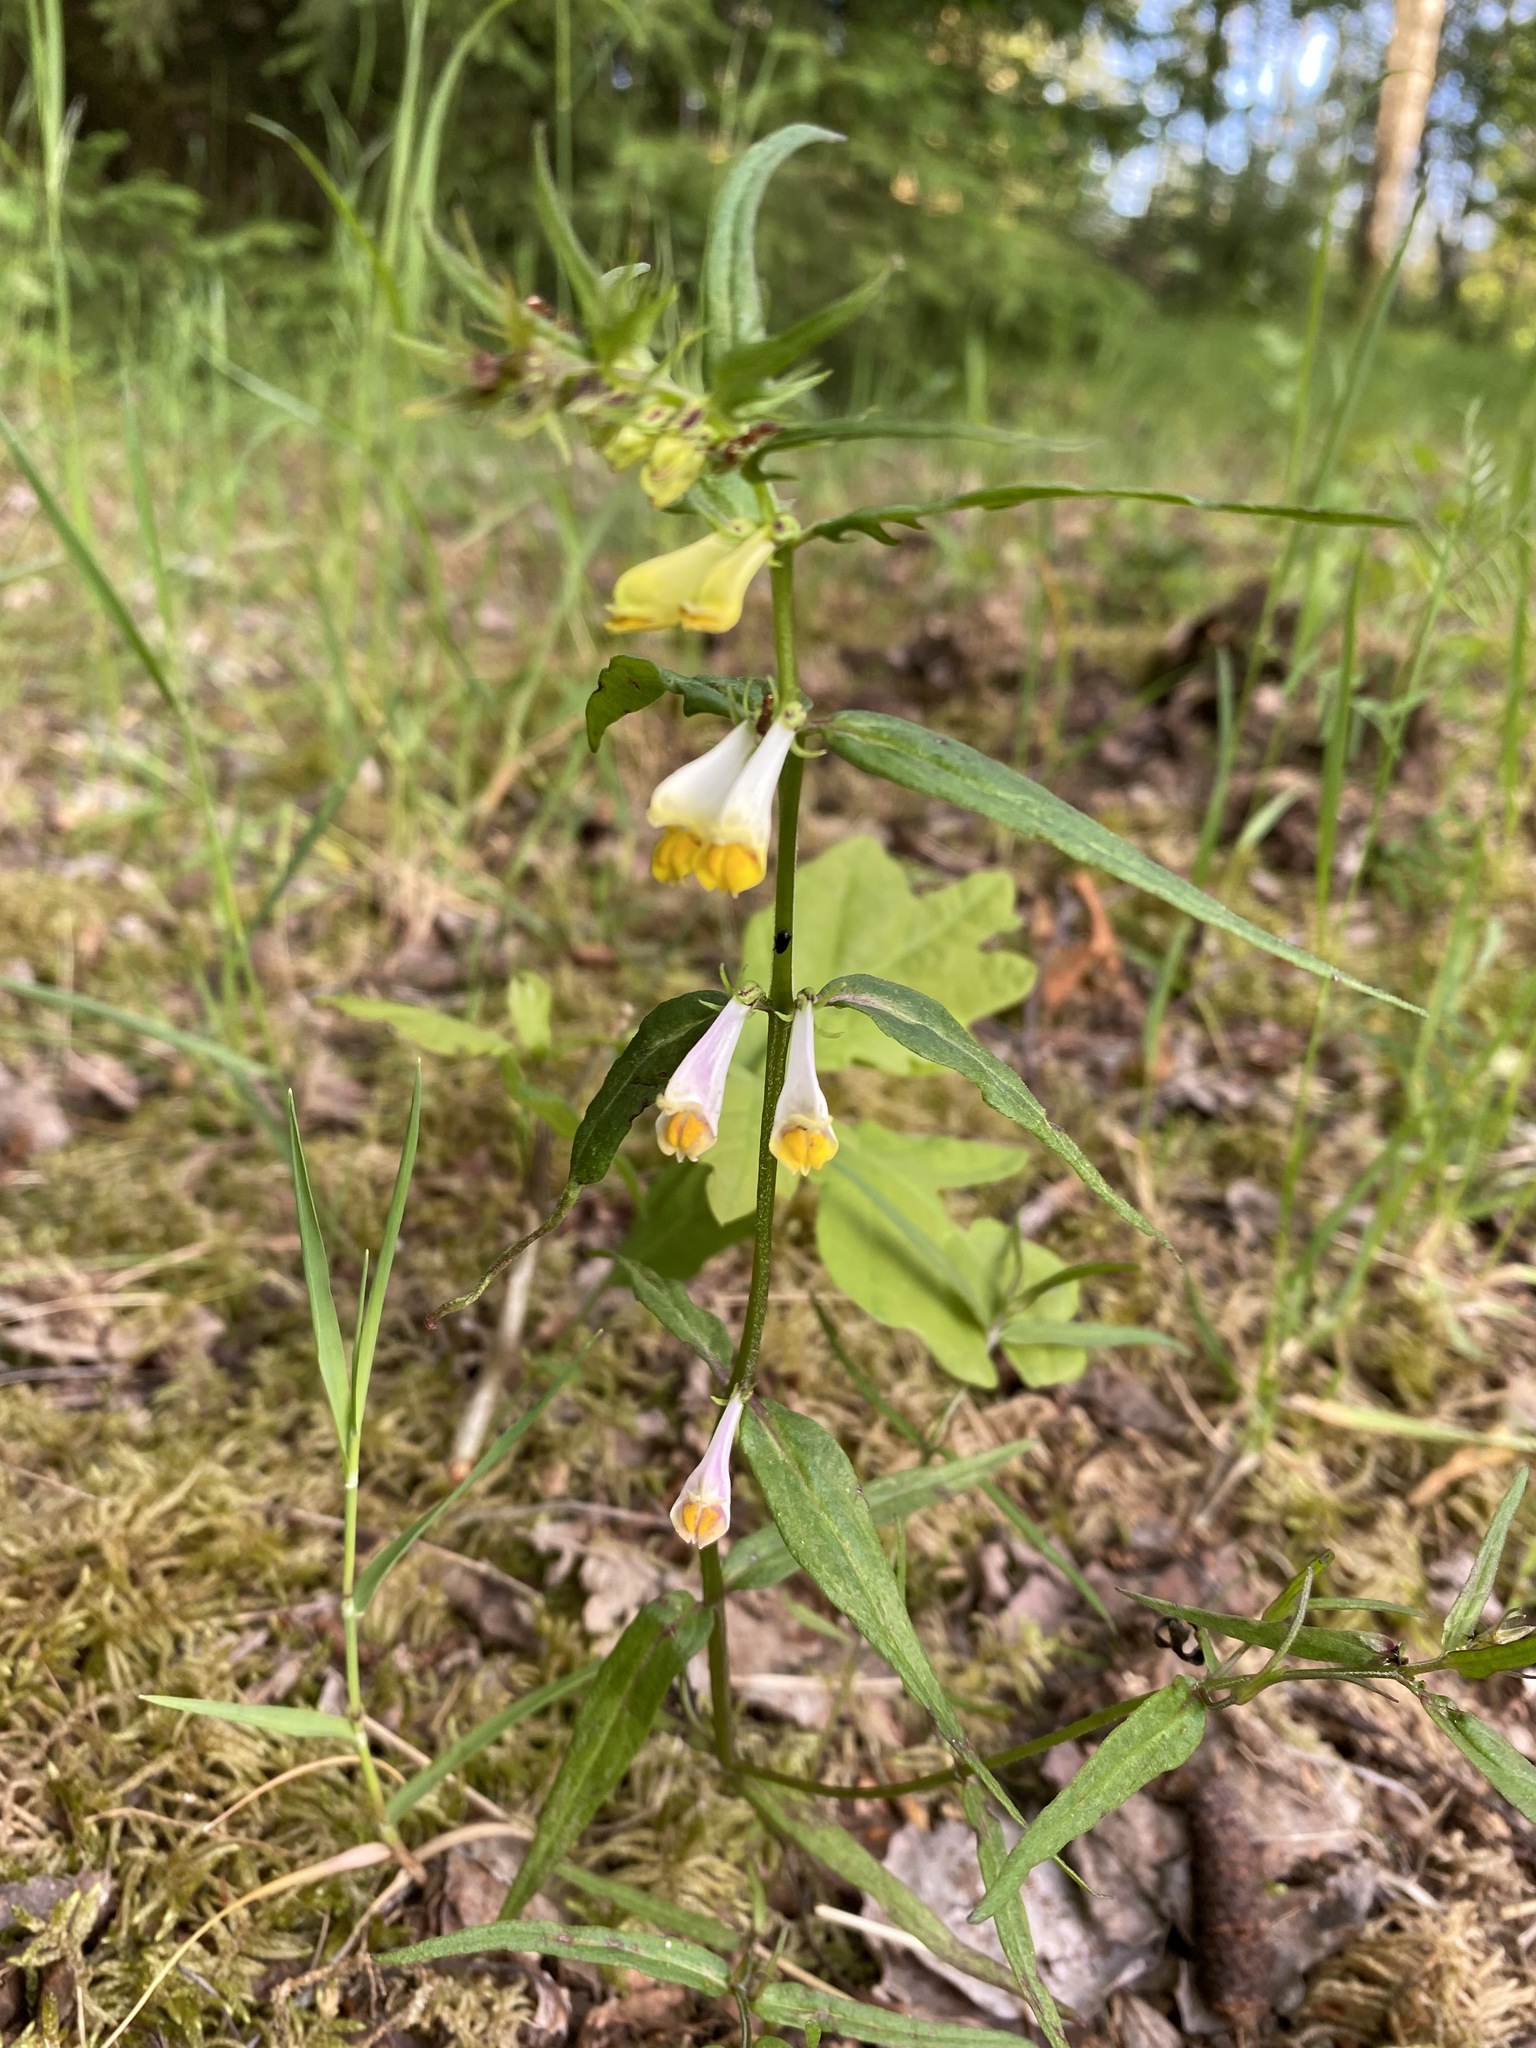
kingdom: Plantae
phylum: Tracheophyta
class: Magnoliopsida
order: Lamiales
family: Orobanchaceae
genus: Melampyrum
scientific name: Melampyrum pratense
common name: Common cow-wheat
